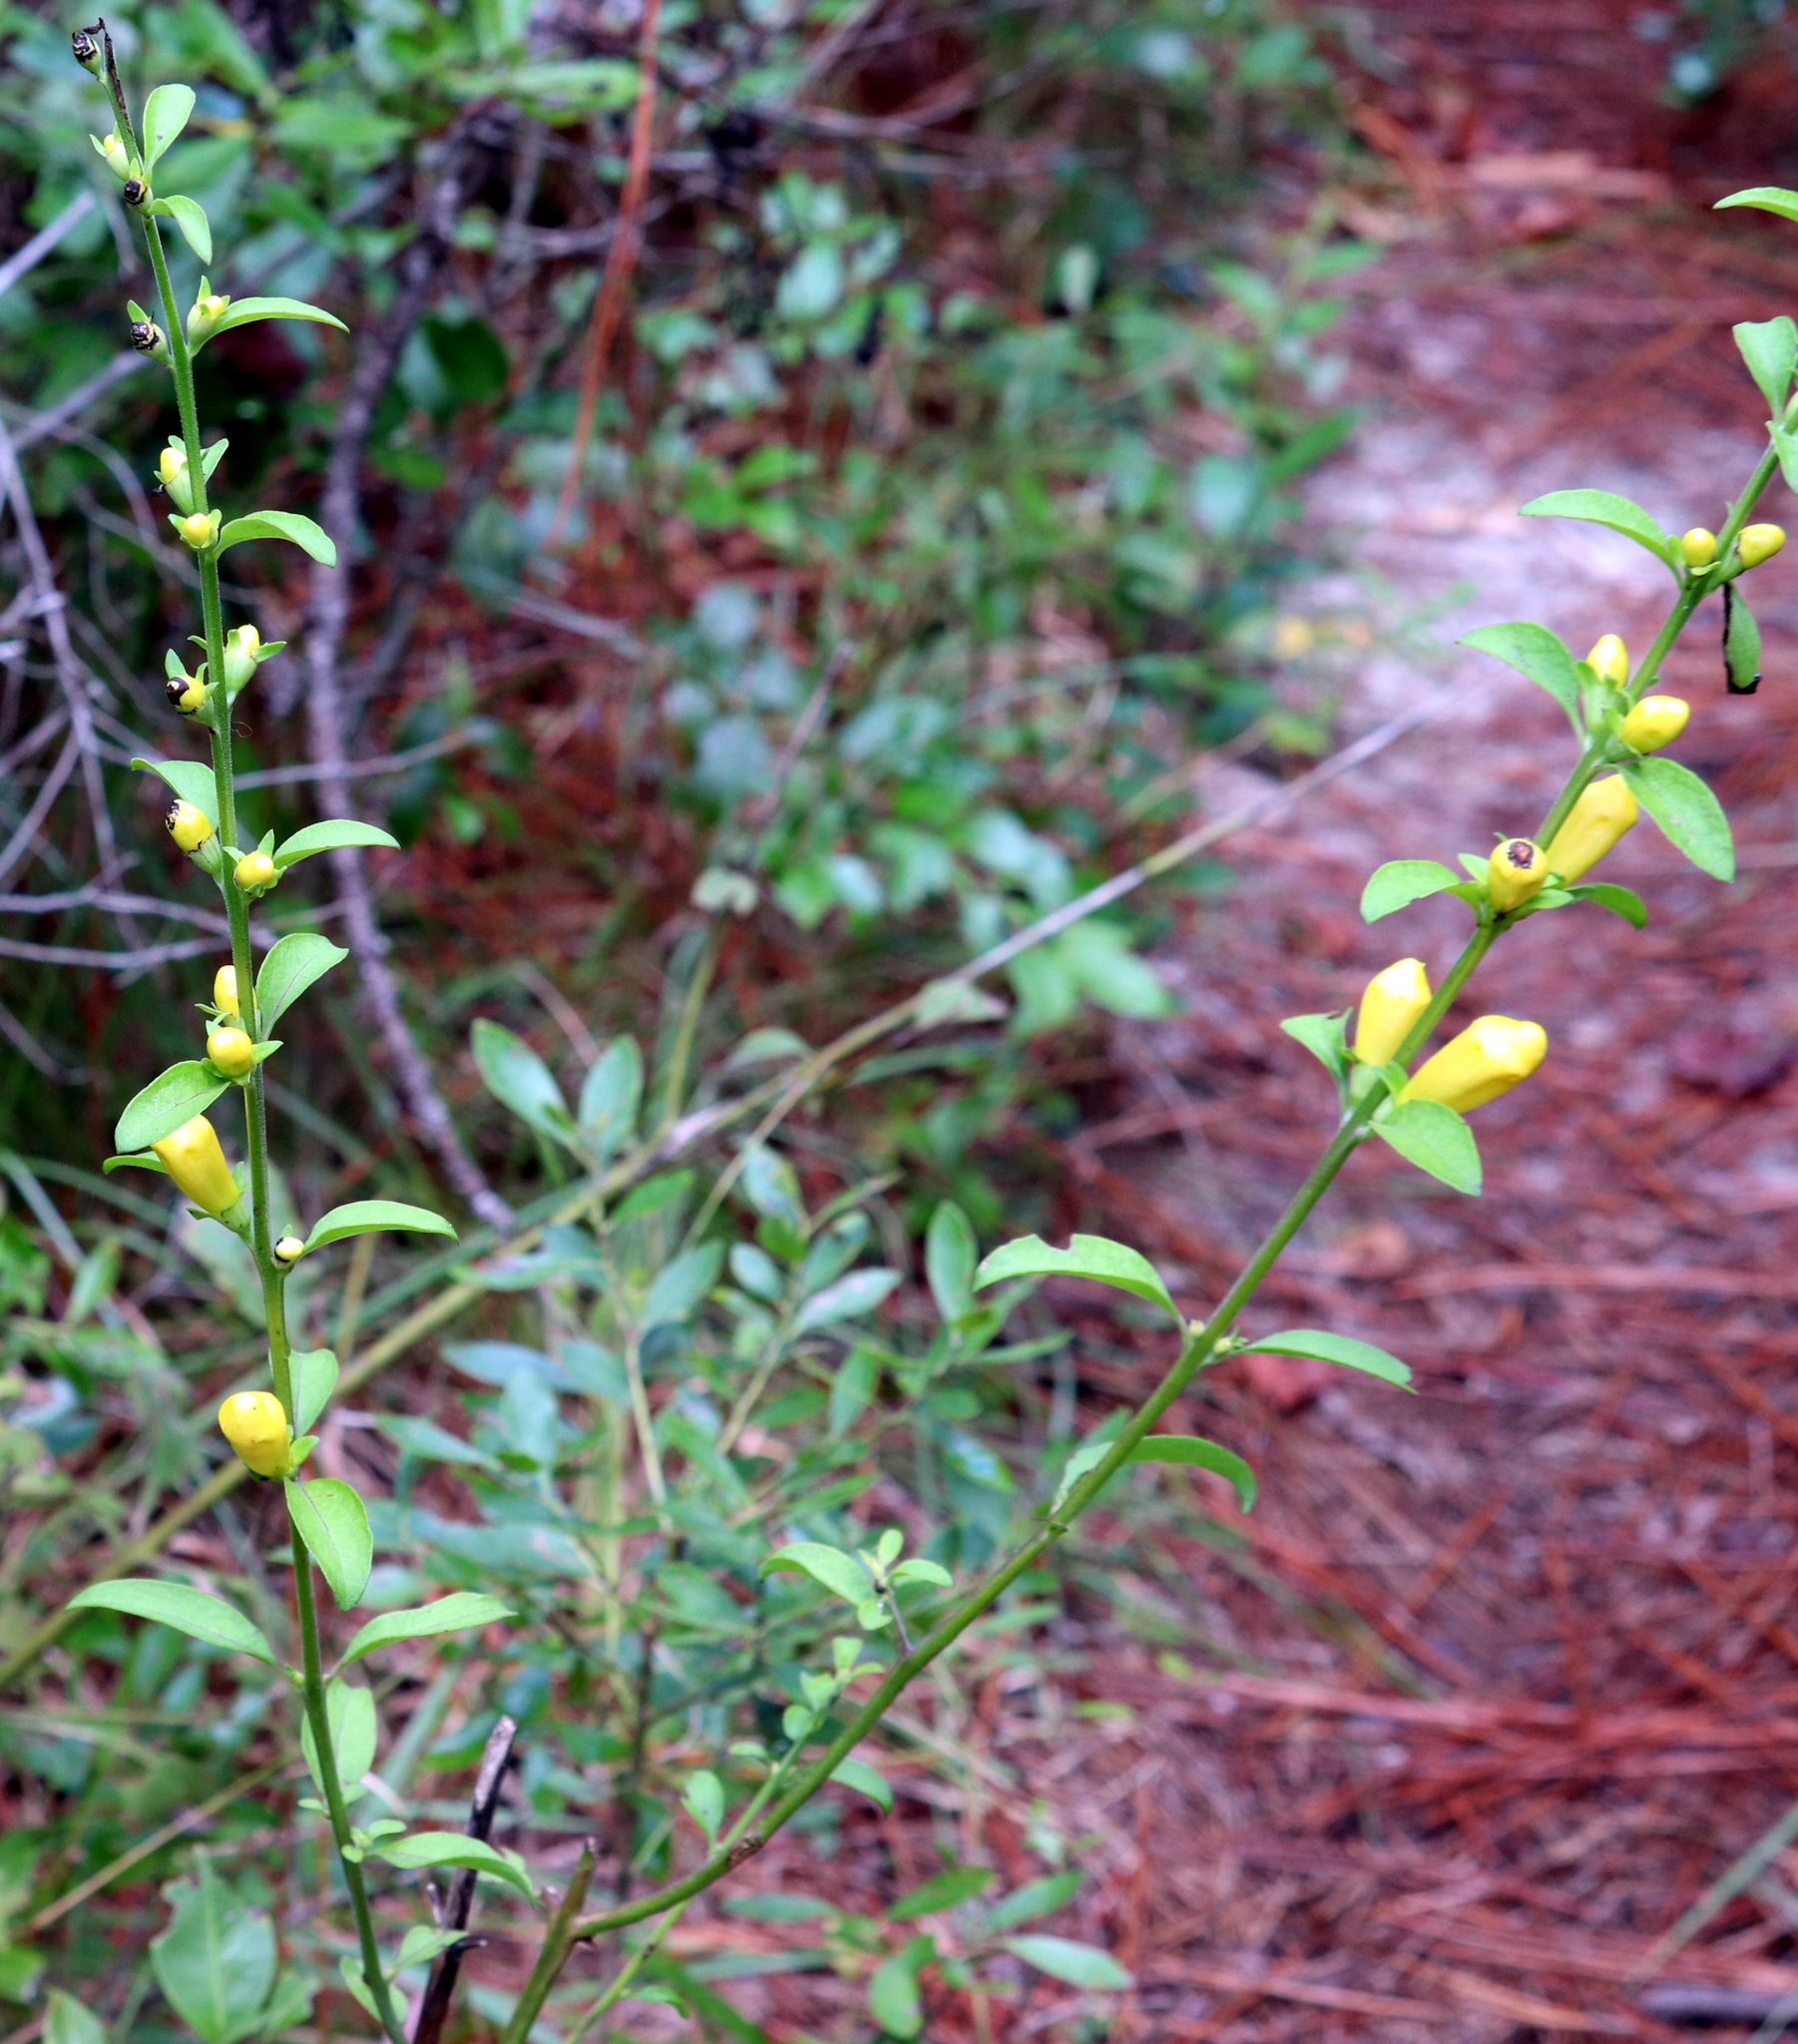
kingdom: Plantae
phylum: Tracheophyta
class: Magnoliopsida
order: Lamiales
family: Orobanchaceae
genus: Aureolaria
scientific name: Aureolaria flava
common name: Smooth false foxglove
